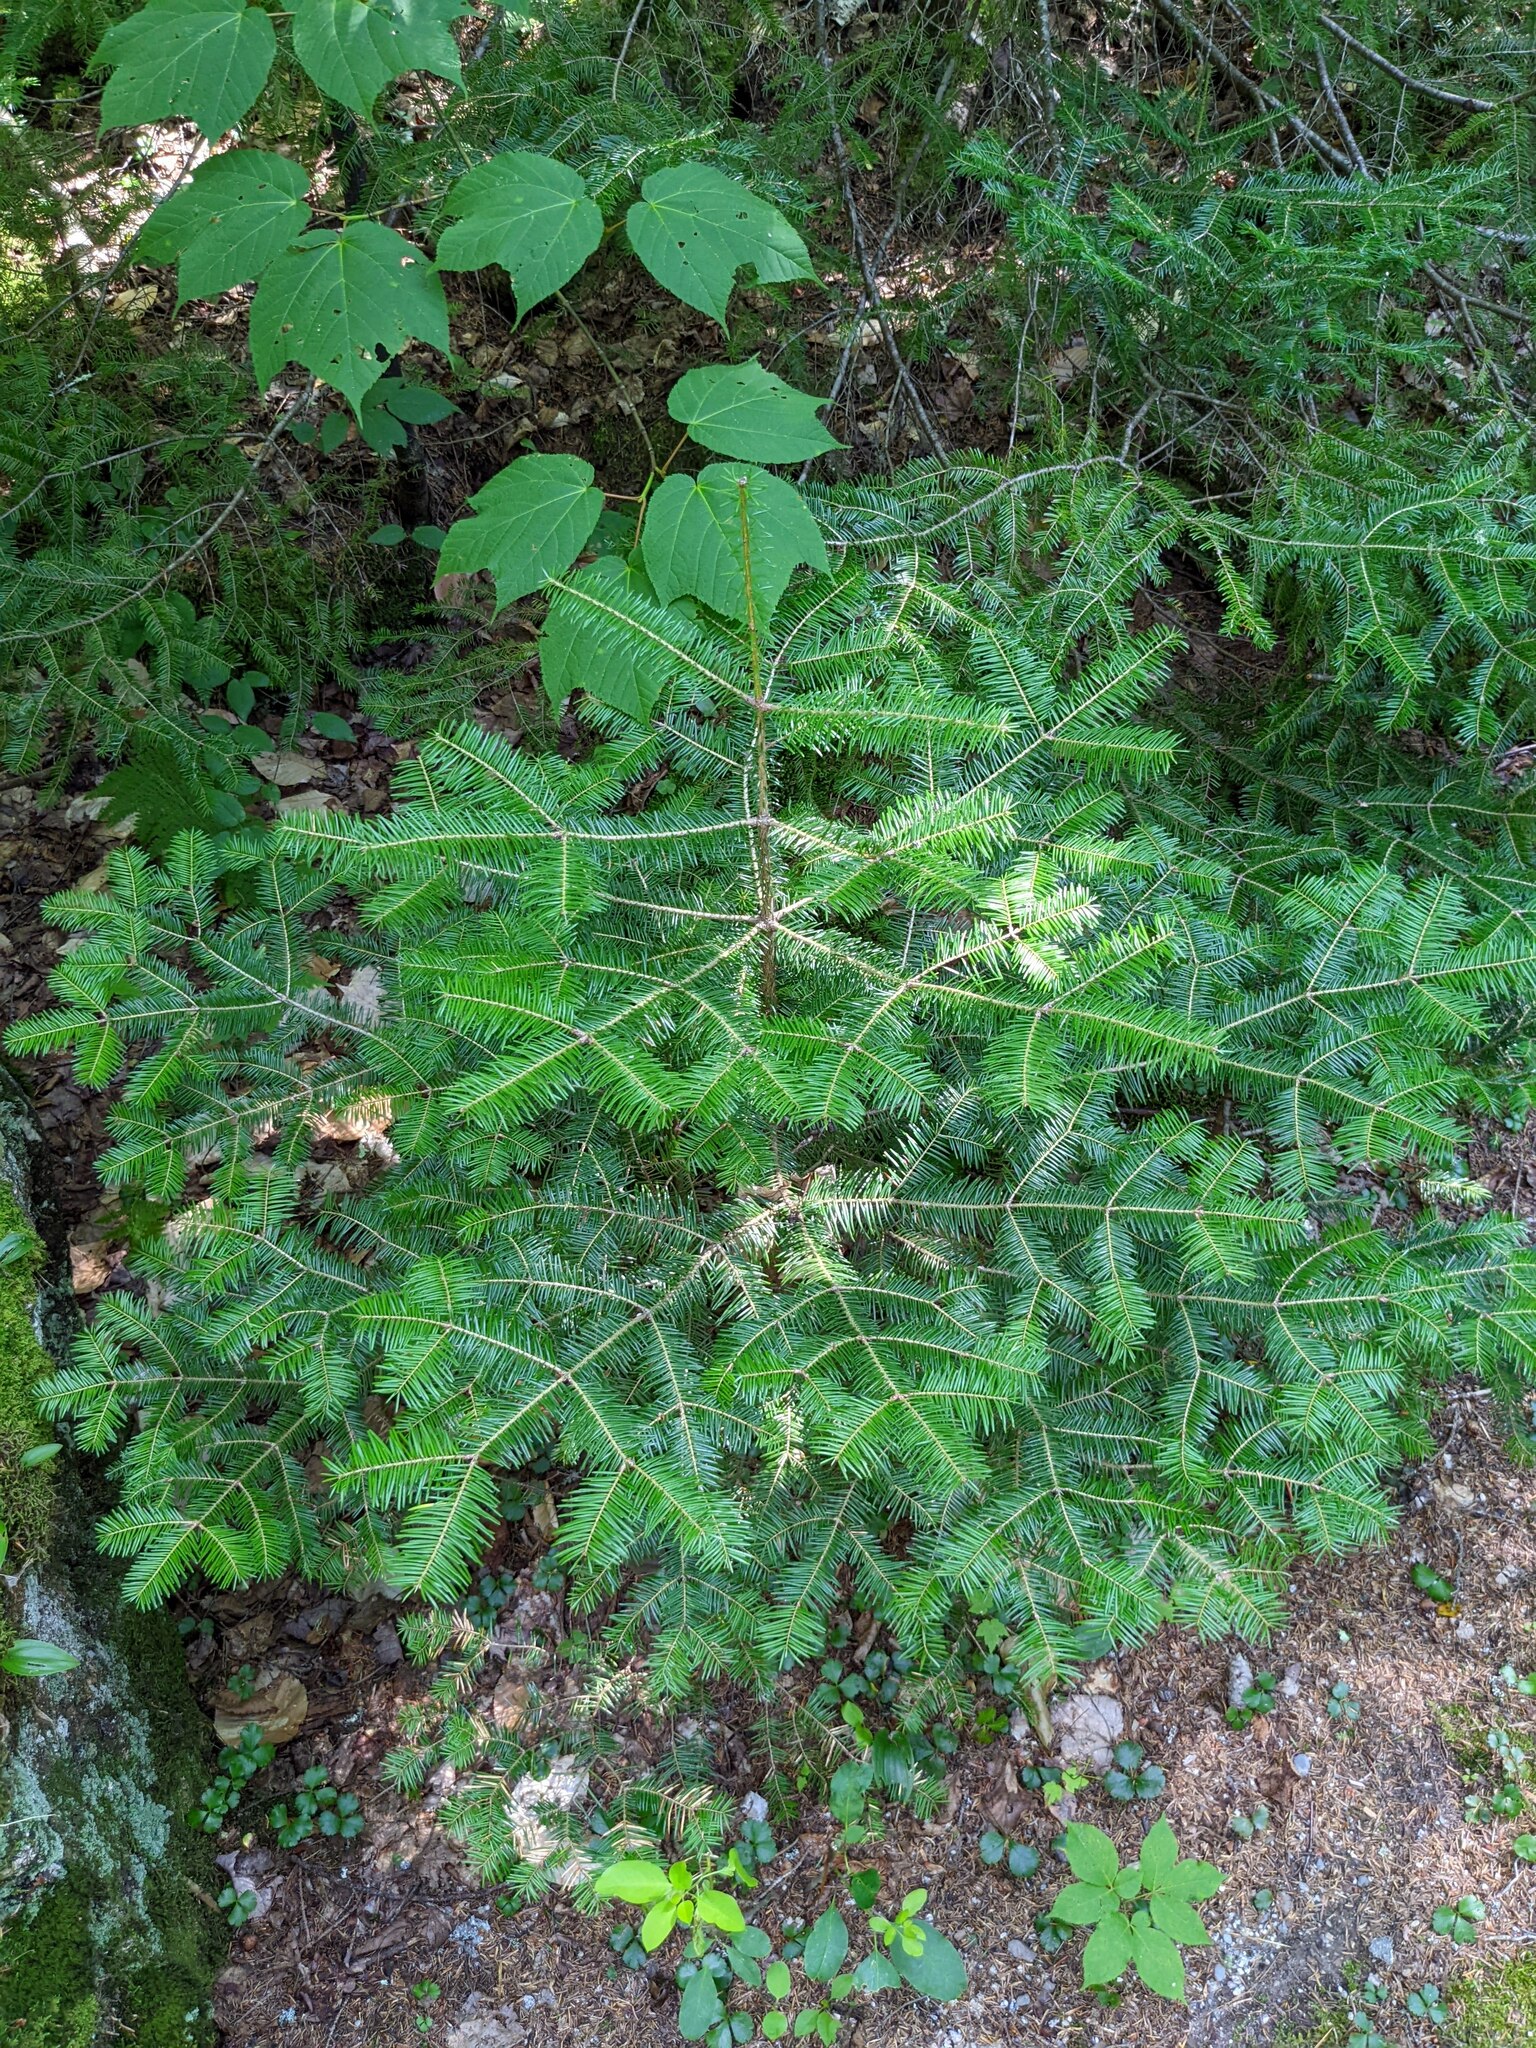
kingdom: Plantae
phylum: Tracheophyta
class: Pinopsida
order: Pinales
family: Pinaceae
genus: Abies
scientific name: Abies balsamea
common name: Balsam fir
